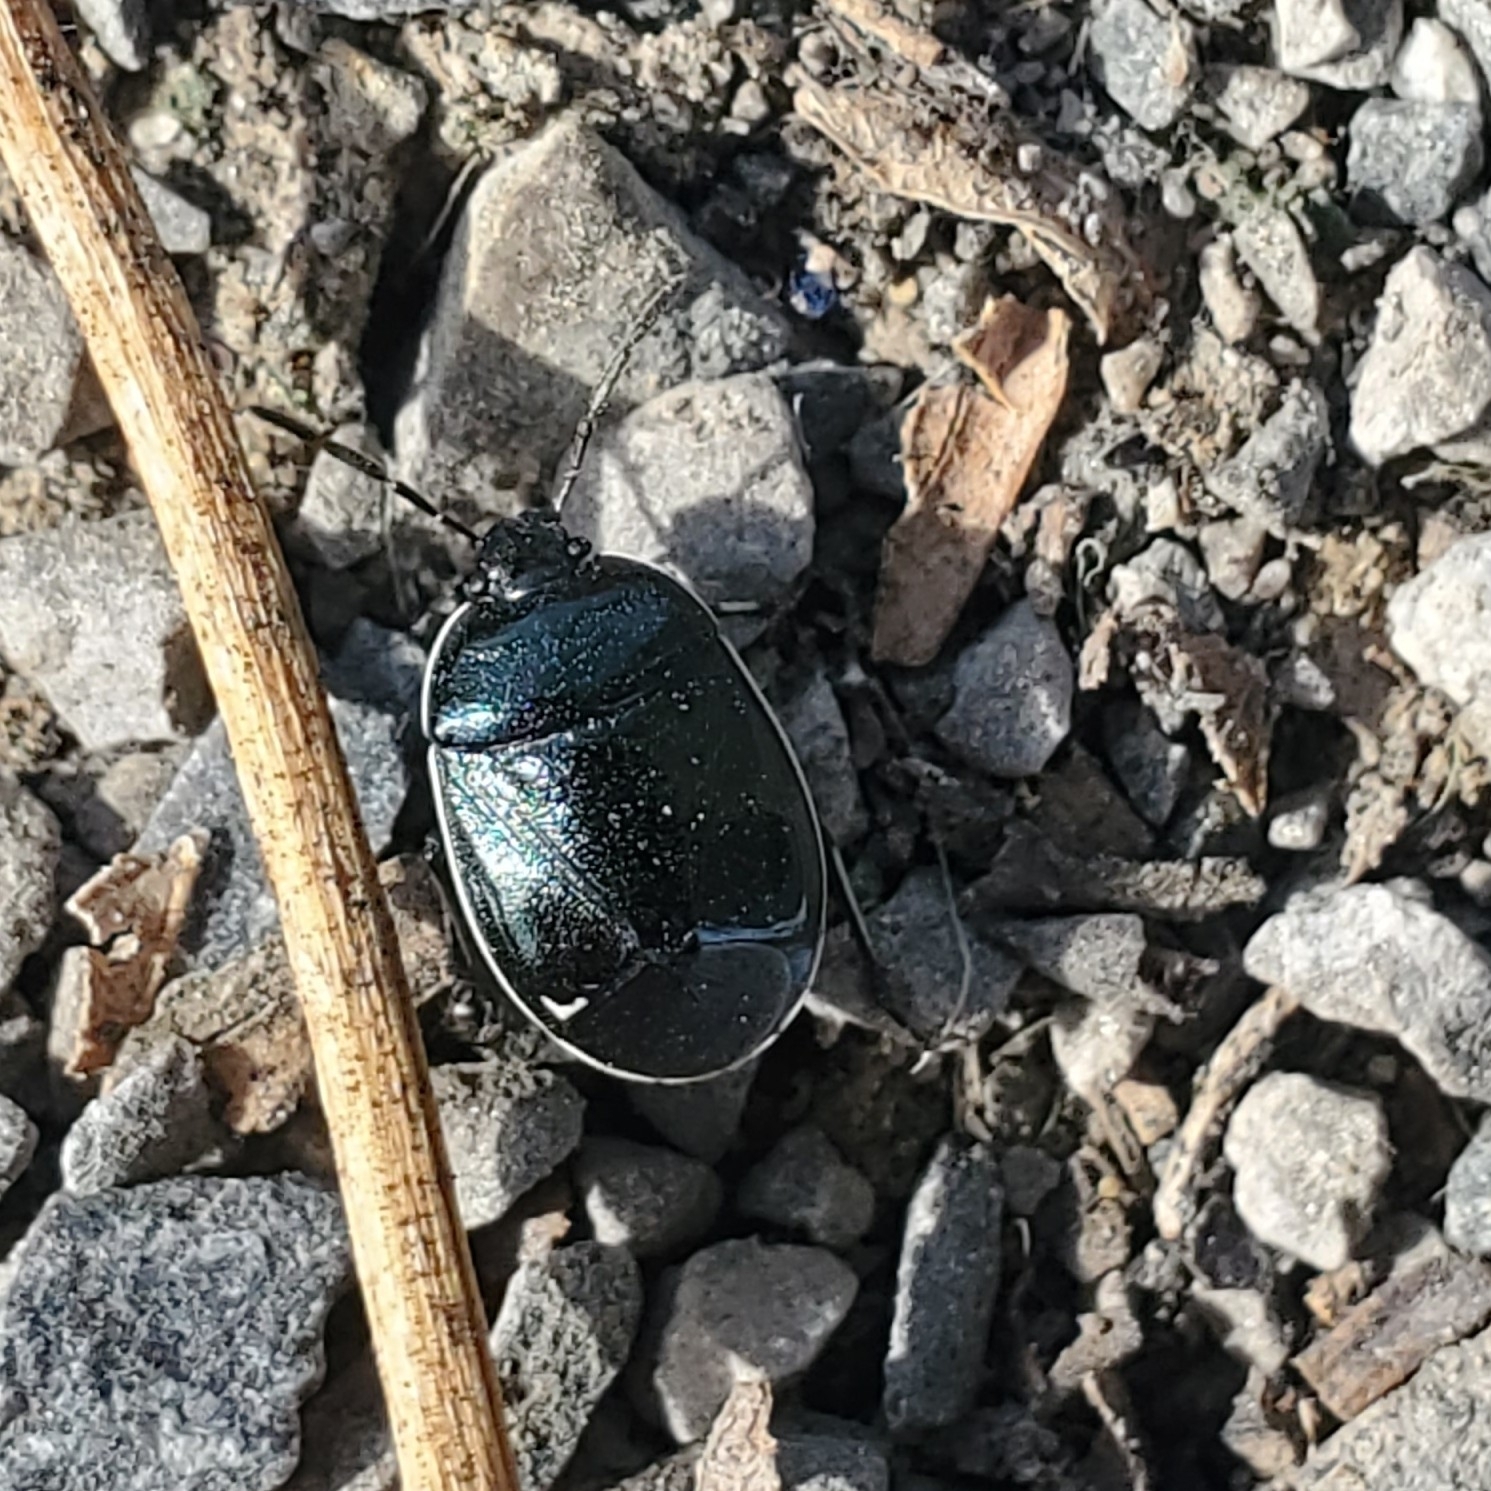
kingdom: Animalia
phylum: Arthropoda
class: Insecta
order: Hemiptera
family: Cydnidae
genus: Sehirus
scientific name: Sehirus cinctus
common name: White-margined burrower bug
